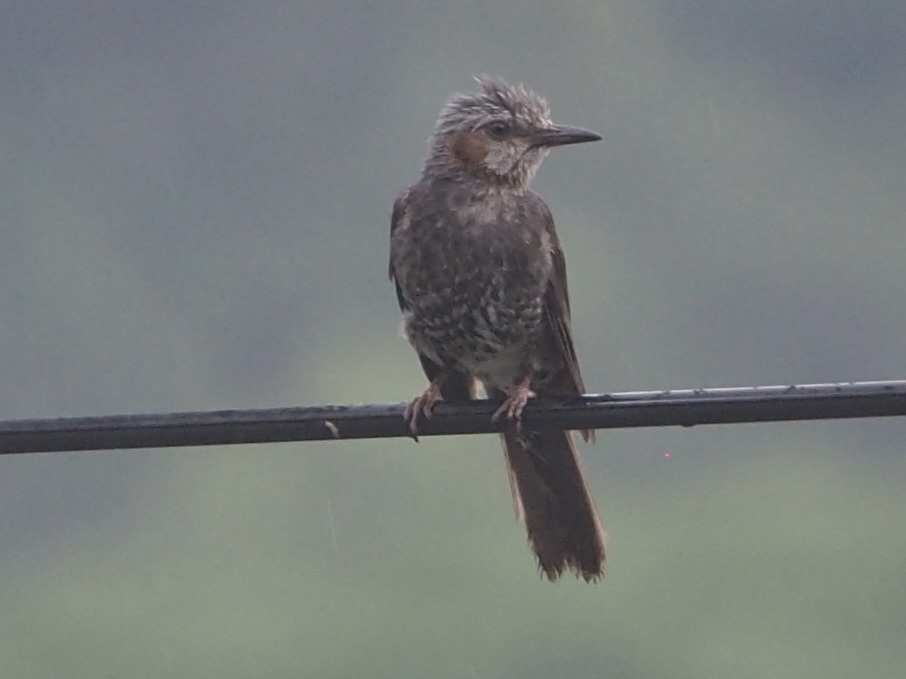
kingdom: Animalia
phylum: Chordata
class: Aves
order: Passeriformes
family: Pycnonotidae
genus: Hypsipetes
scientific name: Hypsipetes amaurotis
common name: Brown-eared bulbul
